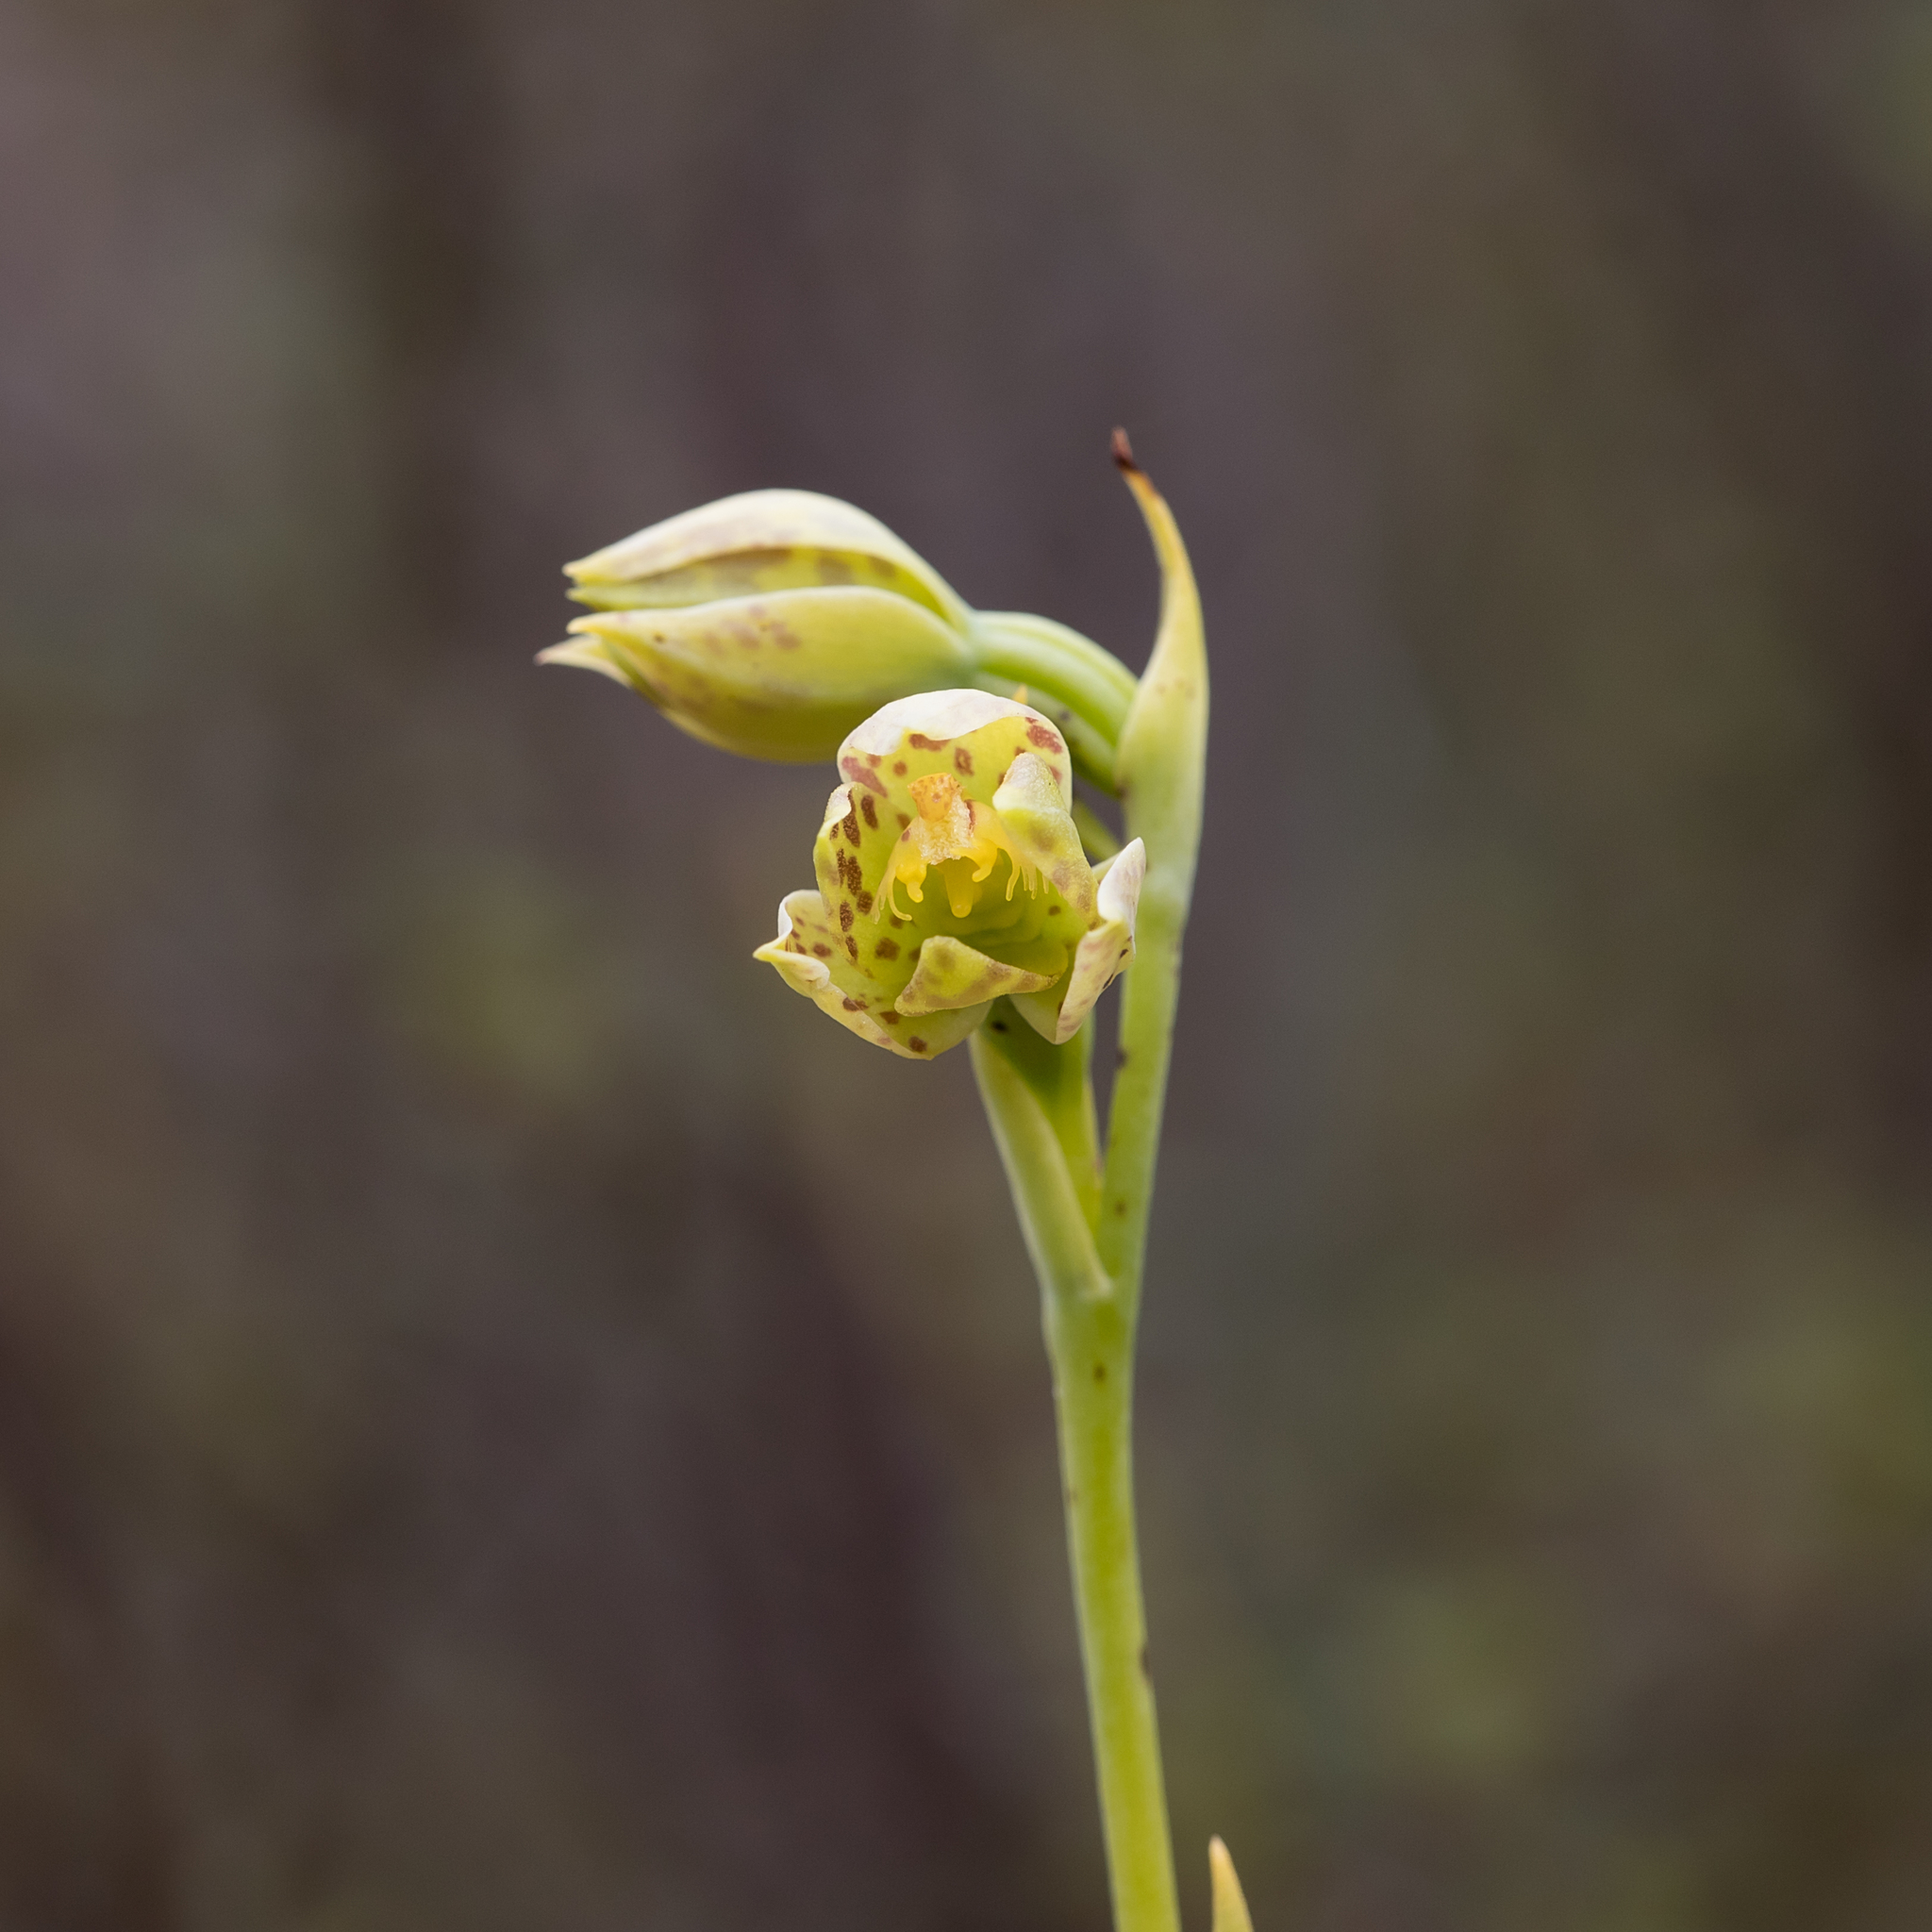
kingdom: Plantae
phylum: Tracheophyta
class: Liliopsida
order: Asparagales
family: Orchidaceae
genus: Thelymitra
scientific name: Thelymitra benthamiana
